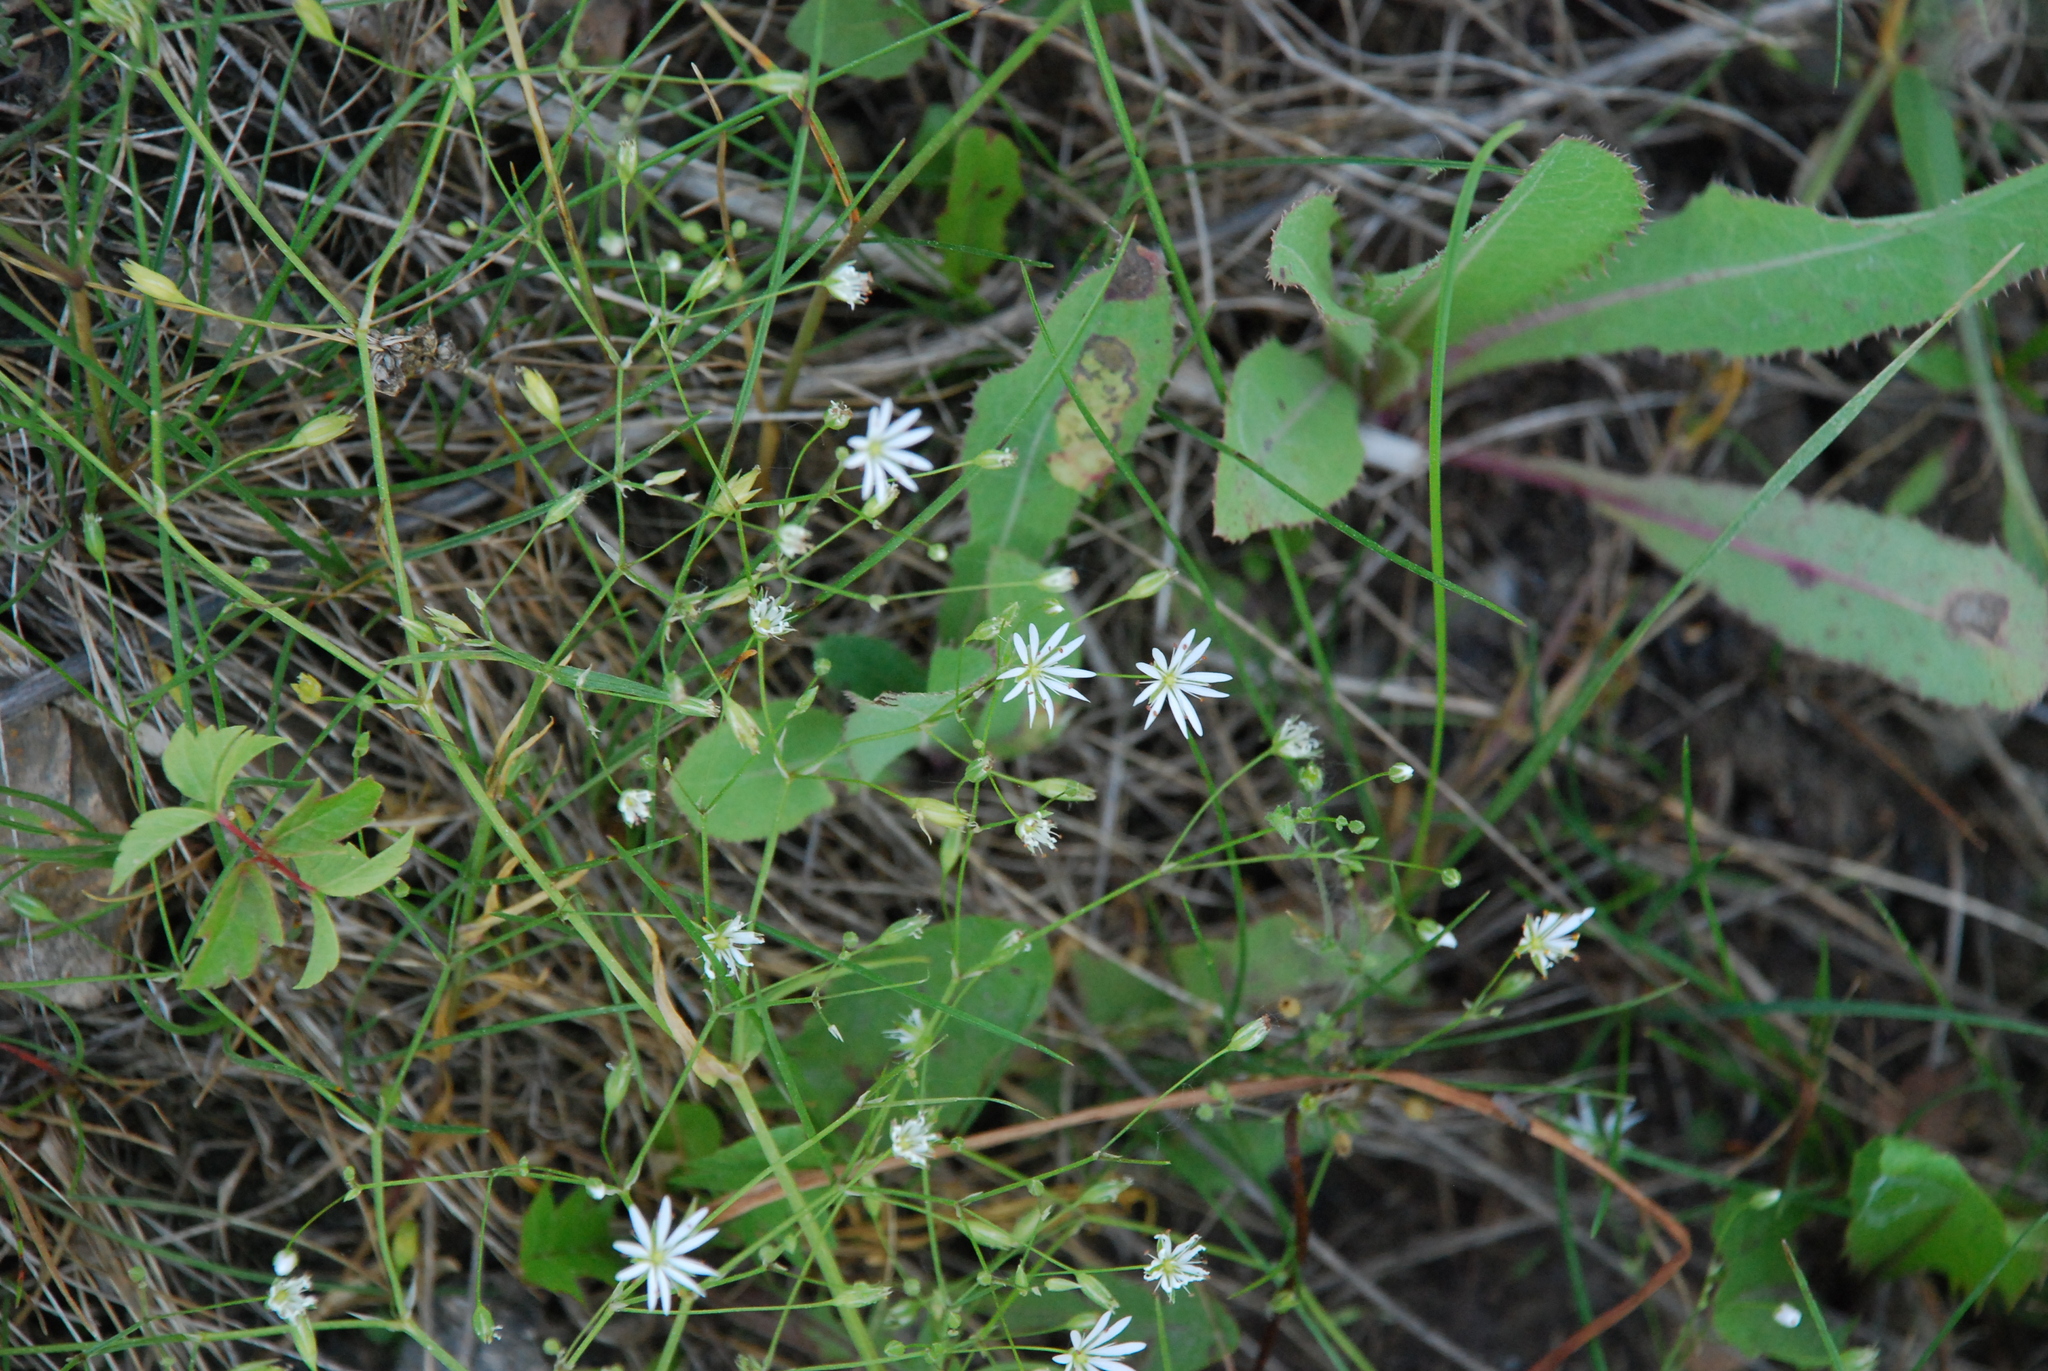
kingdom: Plantae
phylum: Tracheophyta
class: Magnoliopsida
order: Caryophyllales
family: Caryophyllaceae
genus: Stellaria
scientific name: Stellaria graminea
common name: Grass-like starwort
